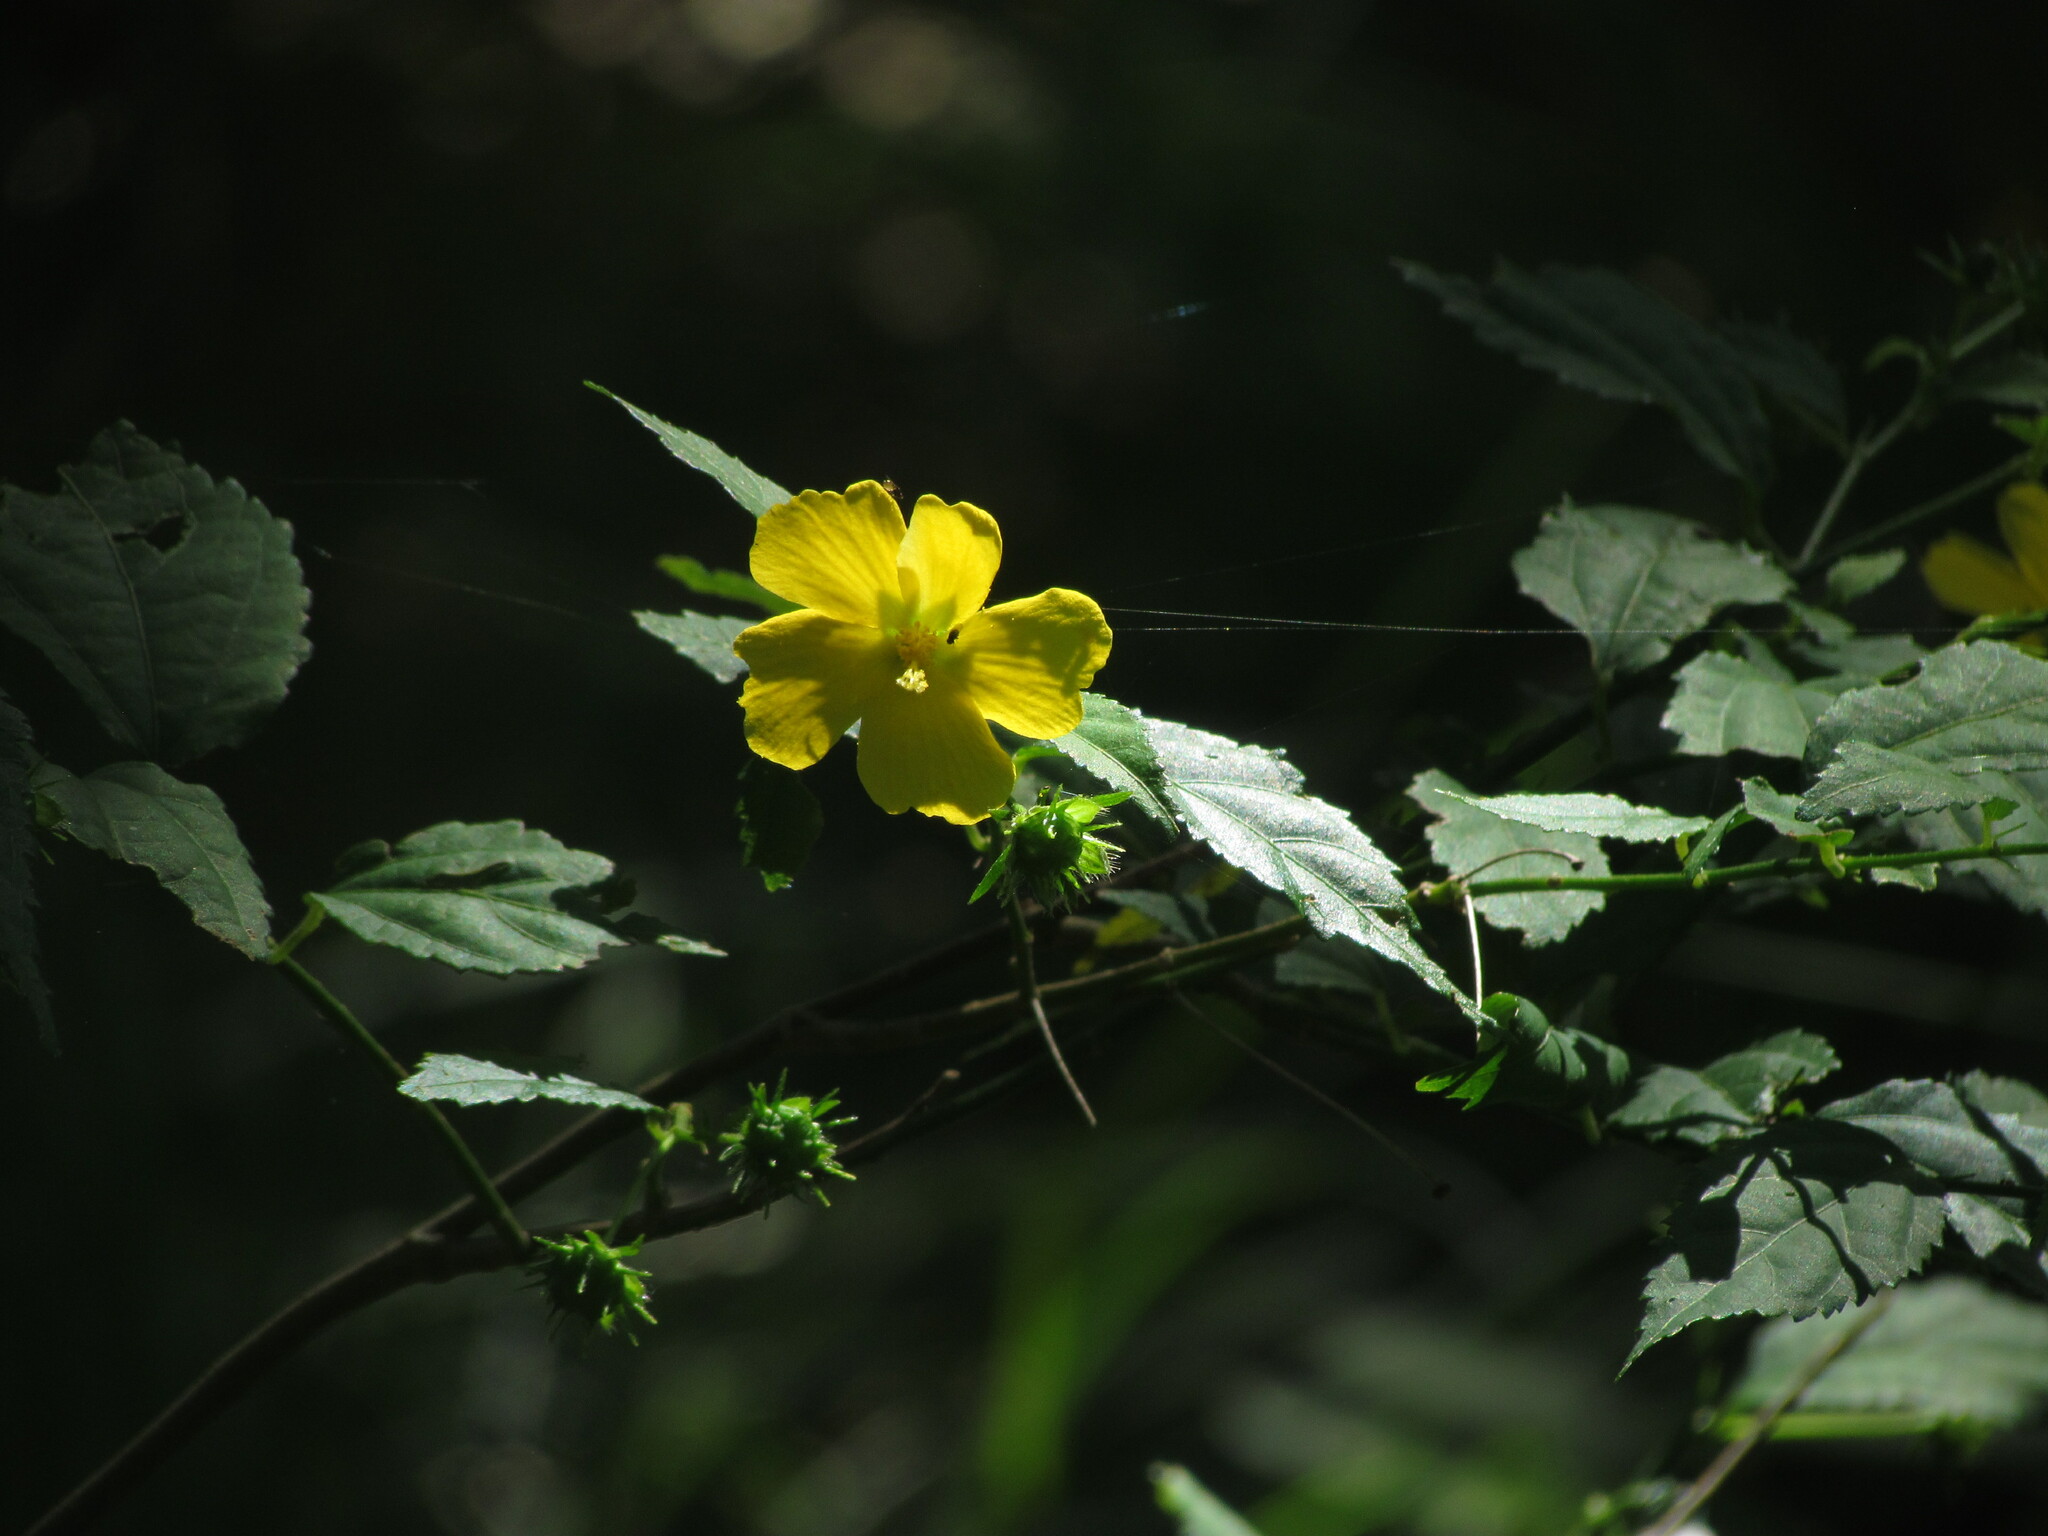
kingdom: Plantae
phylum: Tracheophyta
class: Magnoliopsida
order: Malvales
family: Malvaceae
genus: Pavonia
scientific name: Pavonia sepium
